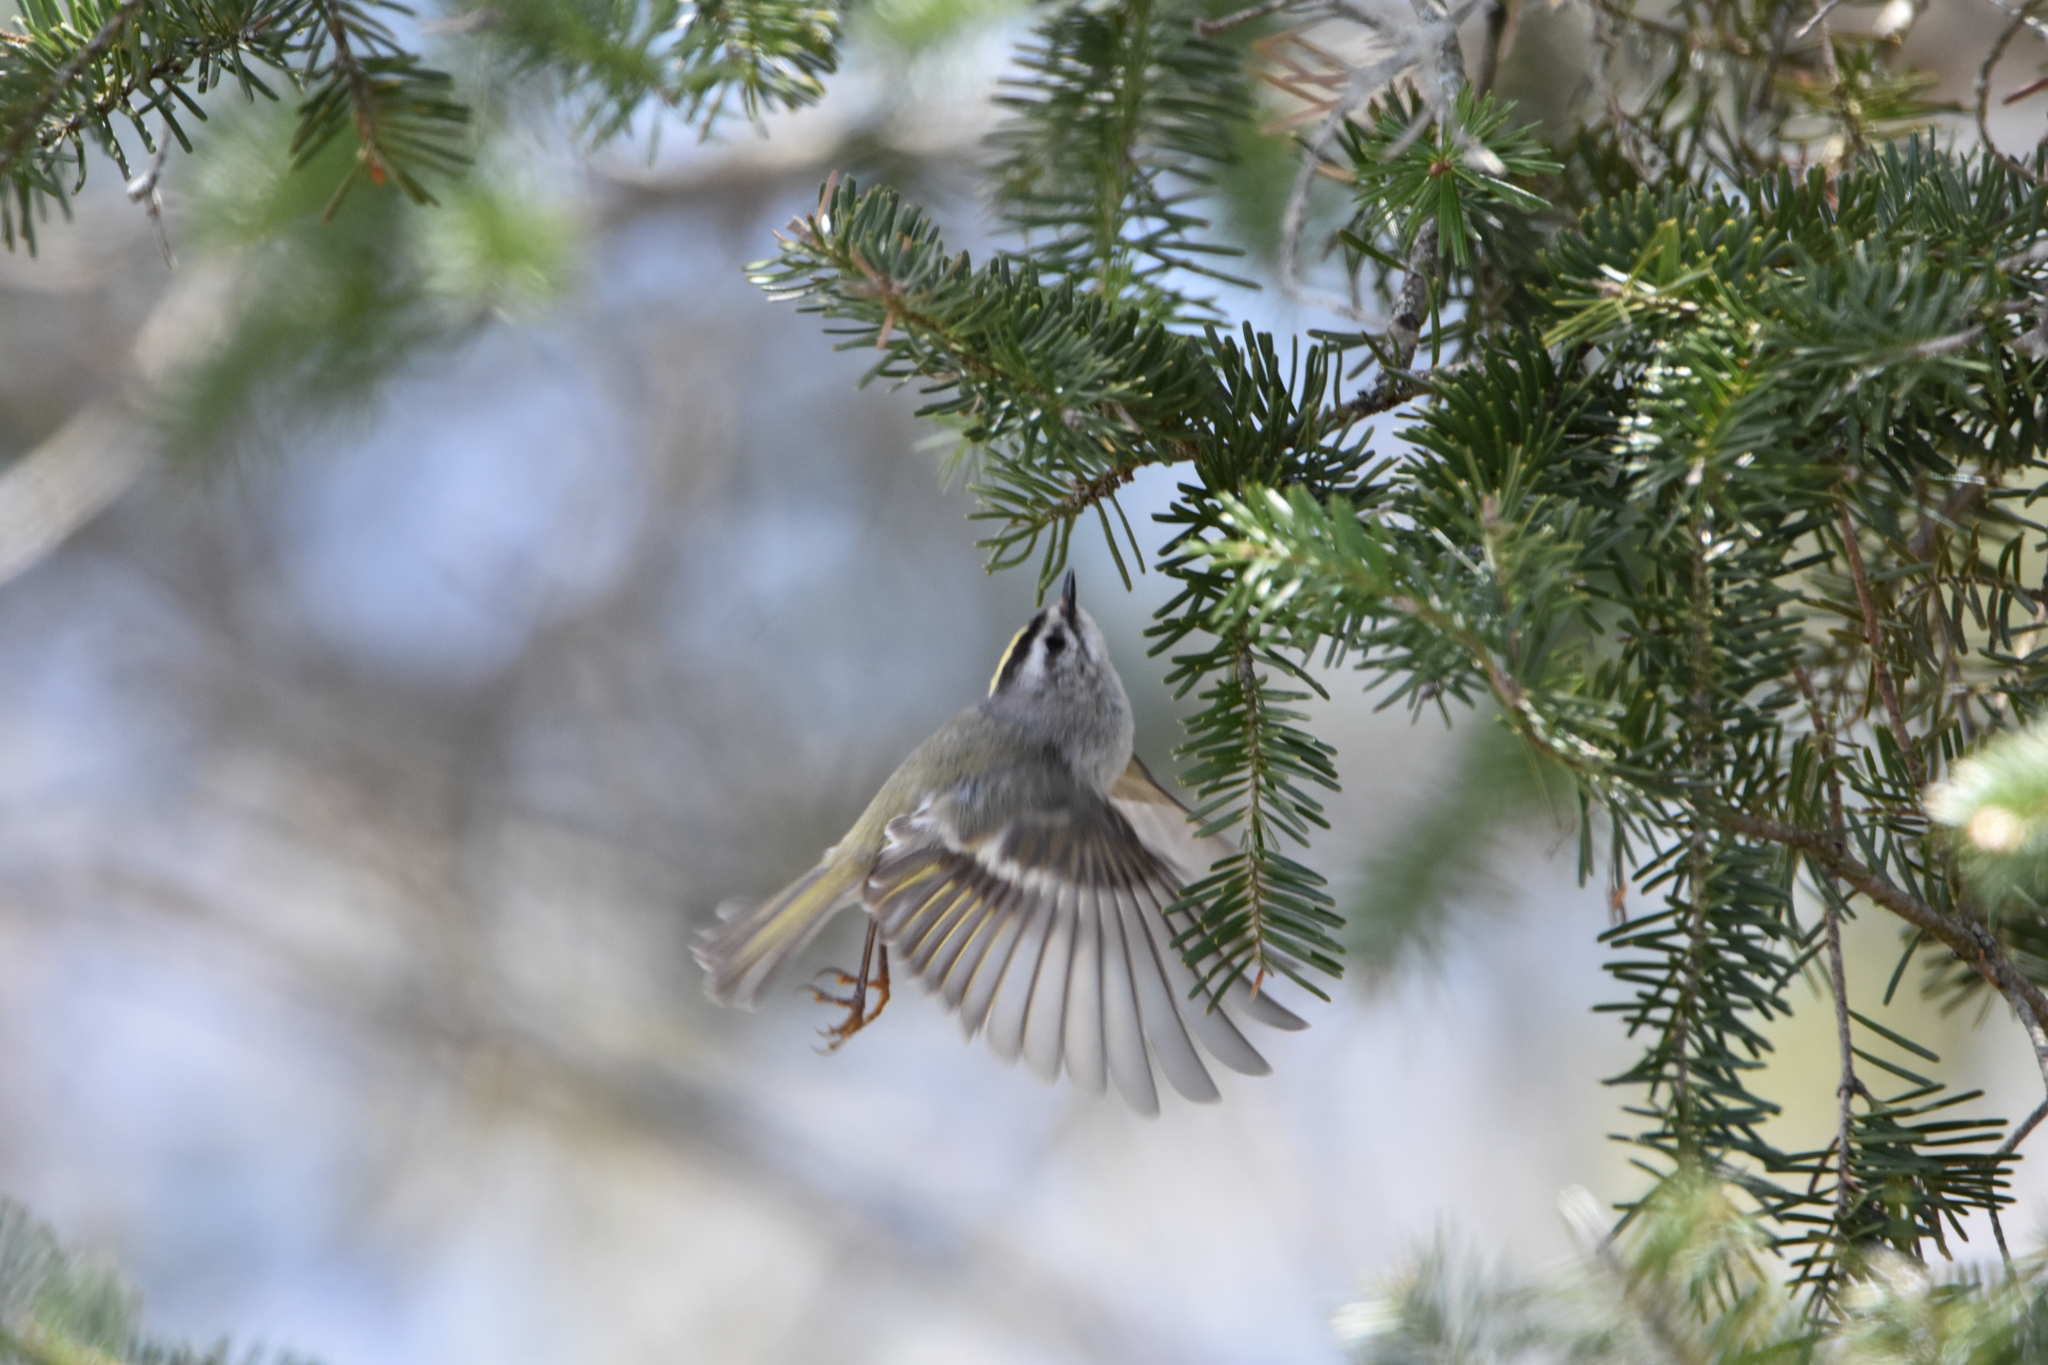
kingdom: Animalia
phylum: Chordata
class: Aves
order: Passeriformes
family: Regulidae
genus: Regulus
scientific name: Regulus satrapa
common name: Golden-crowned kinglet
